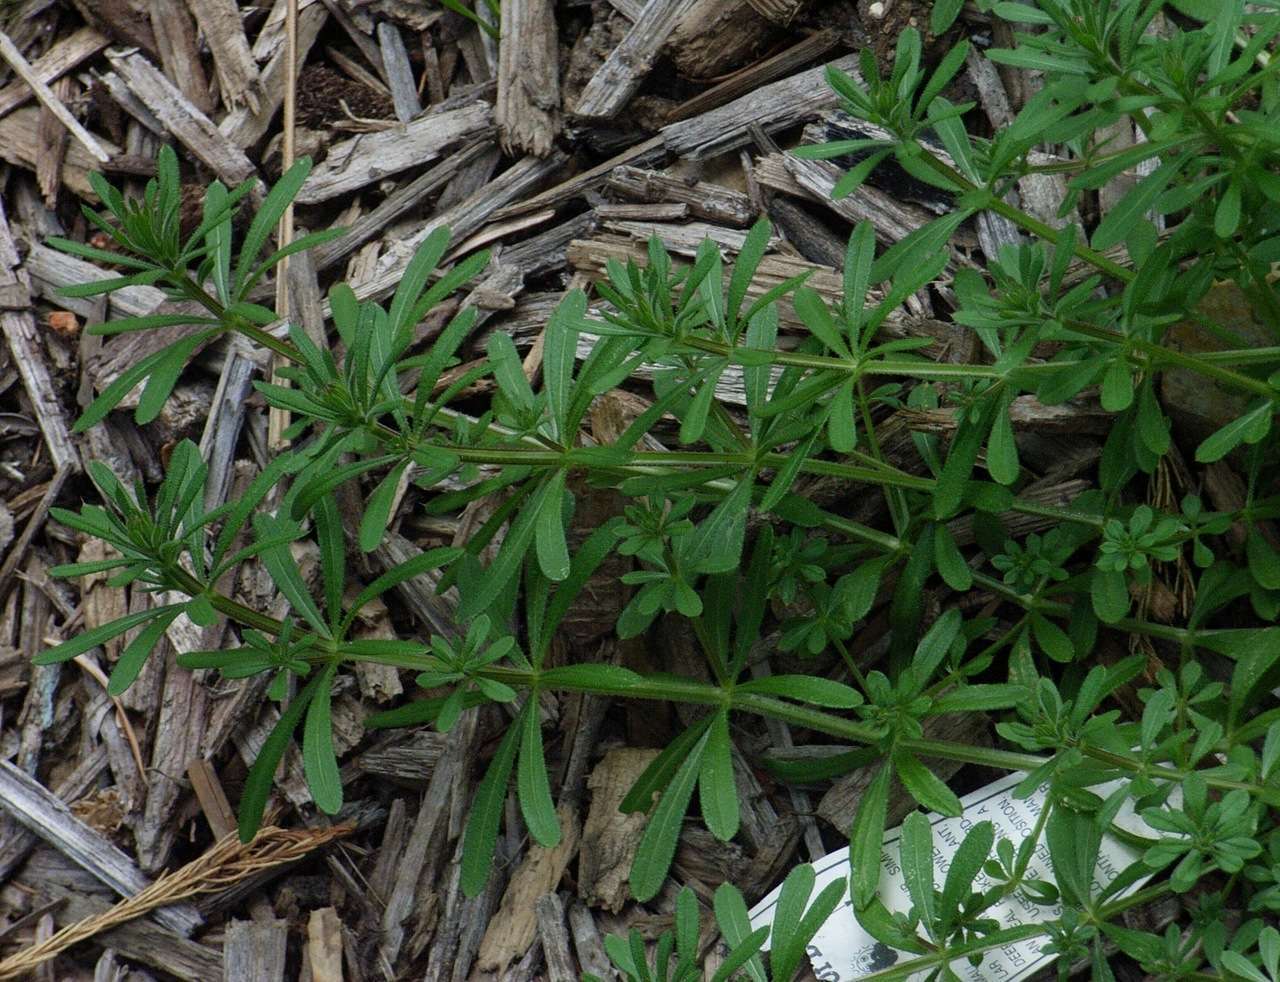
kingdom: Plantae
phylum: Tracheophyta
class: Magnoliopsida
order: Gentianales
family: Rubiaceae
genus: Galium
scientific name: Galium aparine
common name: Cleavers
